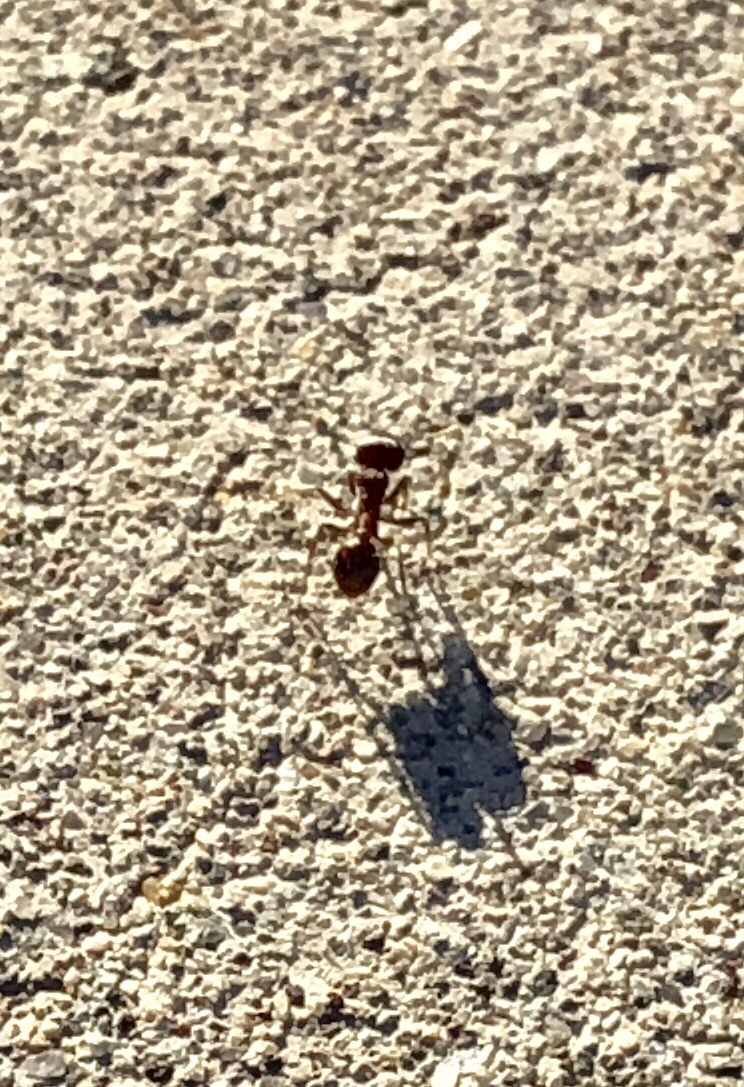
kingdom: Animalia
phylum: Arthropoda
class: Insecta
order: Hymenoptera
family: Formicidae
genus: Pogonomyrmex
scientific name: Pogonomyrmex rugosus
